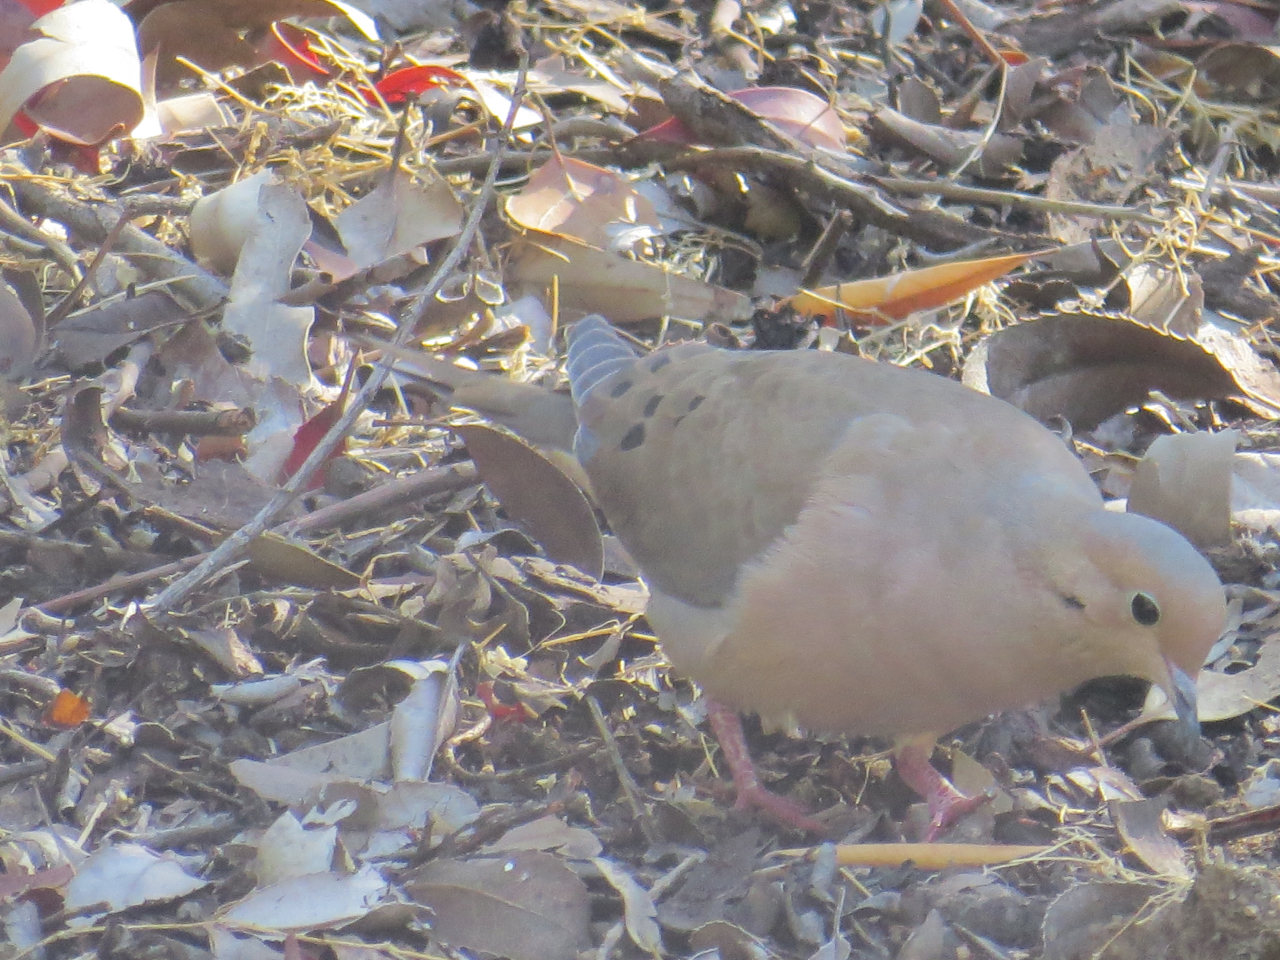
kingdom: Animalia
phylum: Chordata
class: Aves
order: Columbiformes
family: Columbidae
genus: Zenaida
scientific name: Zenaida macroura
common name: Mourning dove
